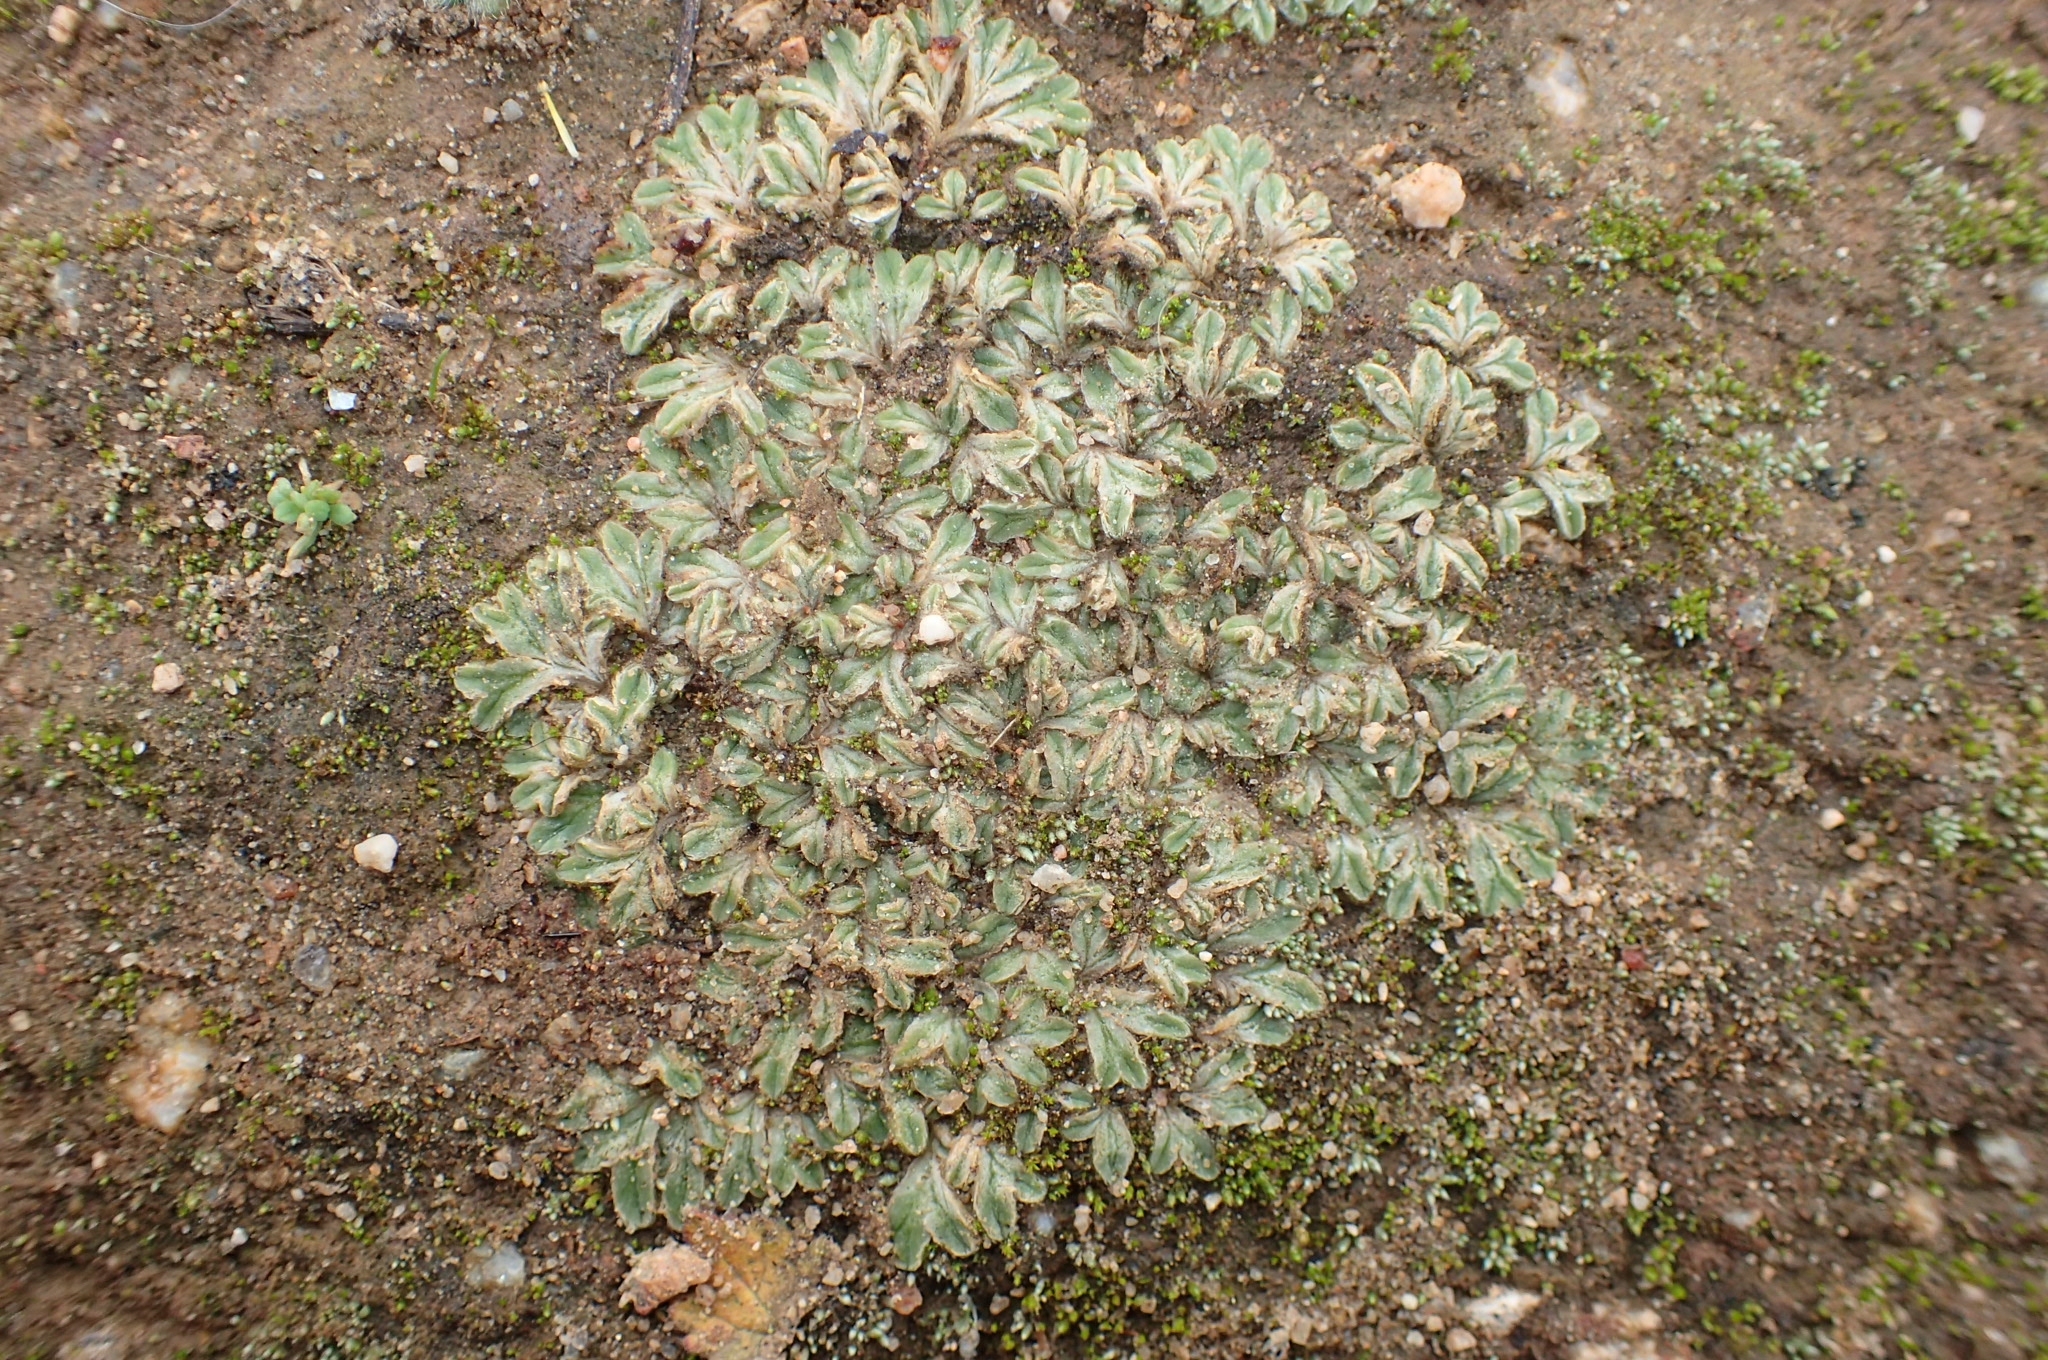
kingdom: Plantae
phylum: Marchantiophyta
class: Marchantiopsida
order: Marchantiales
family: Ricciaceae
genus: Riccia
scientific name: Riccia lamellosa
